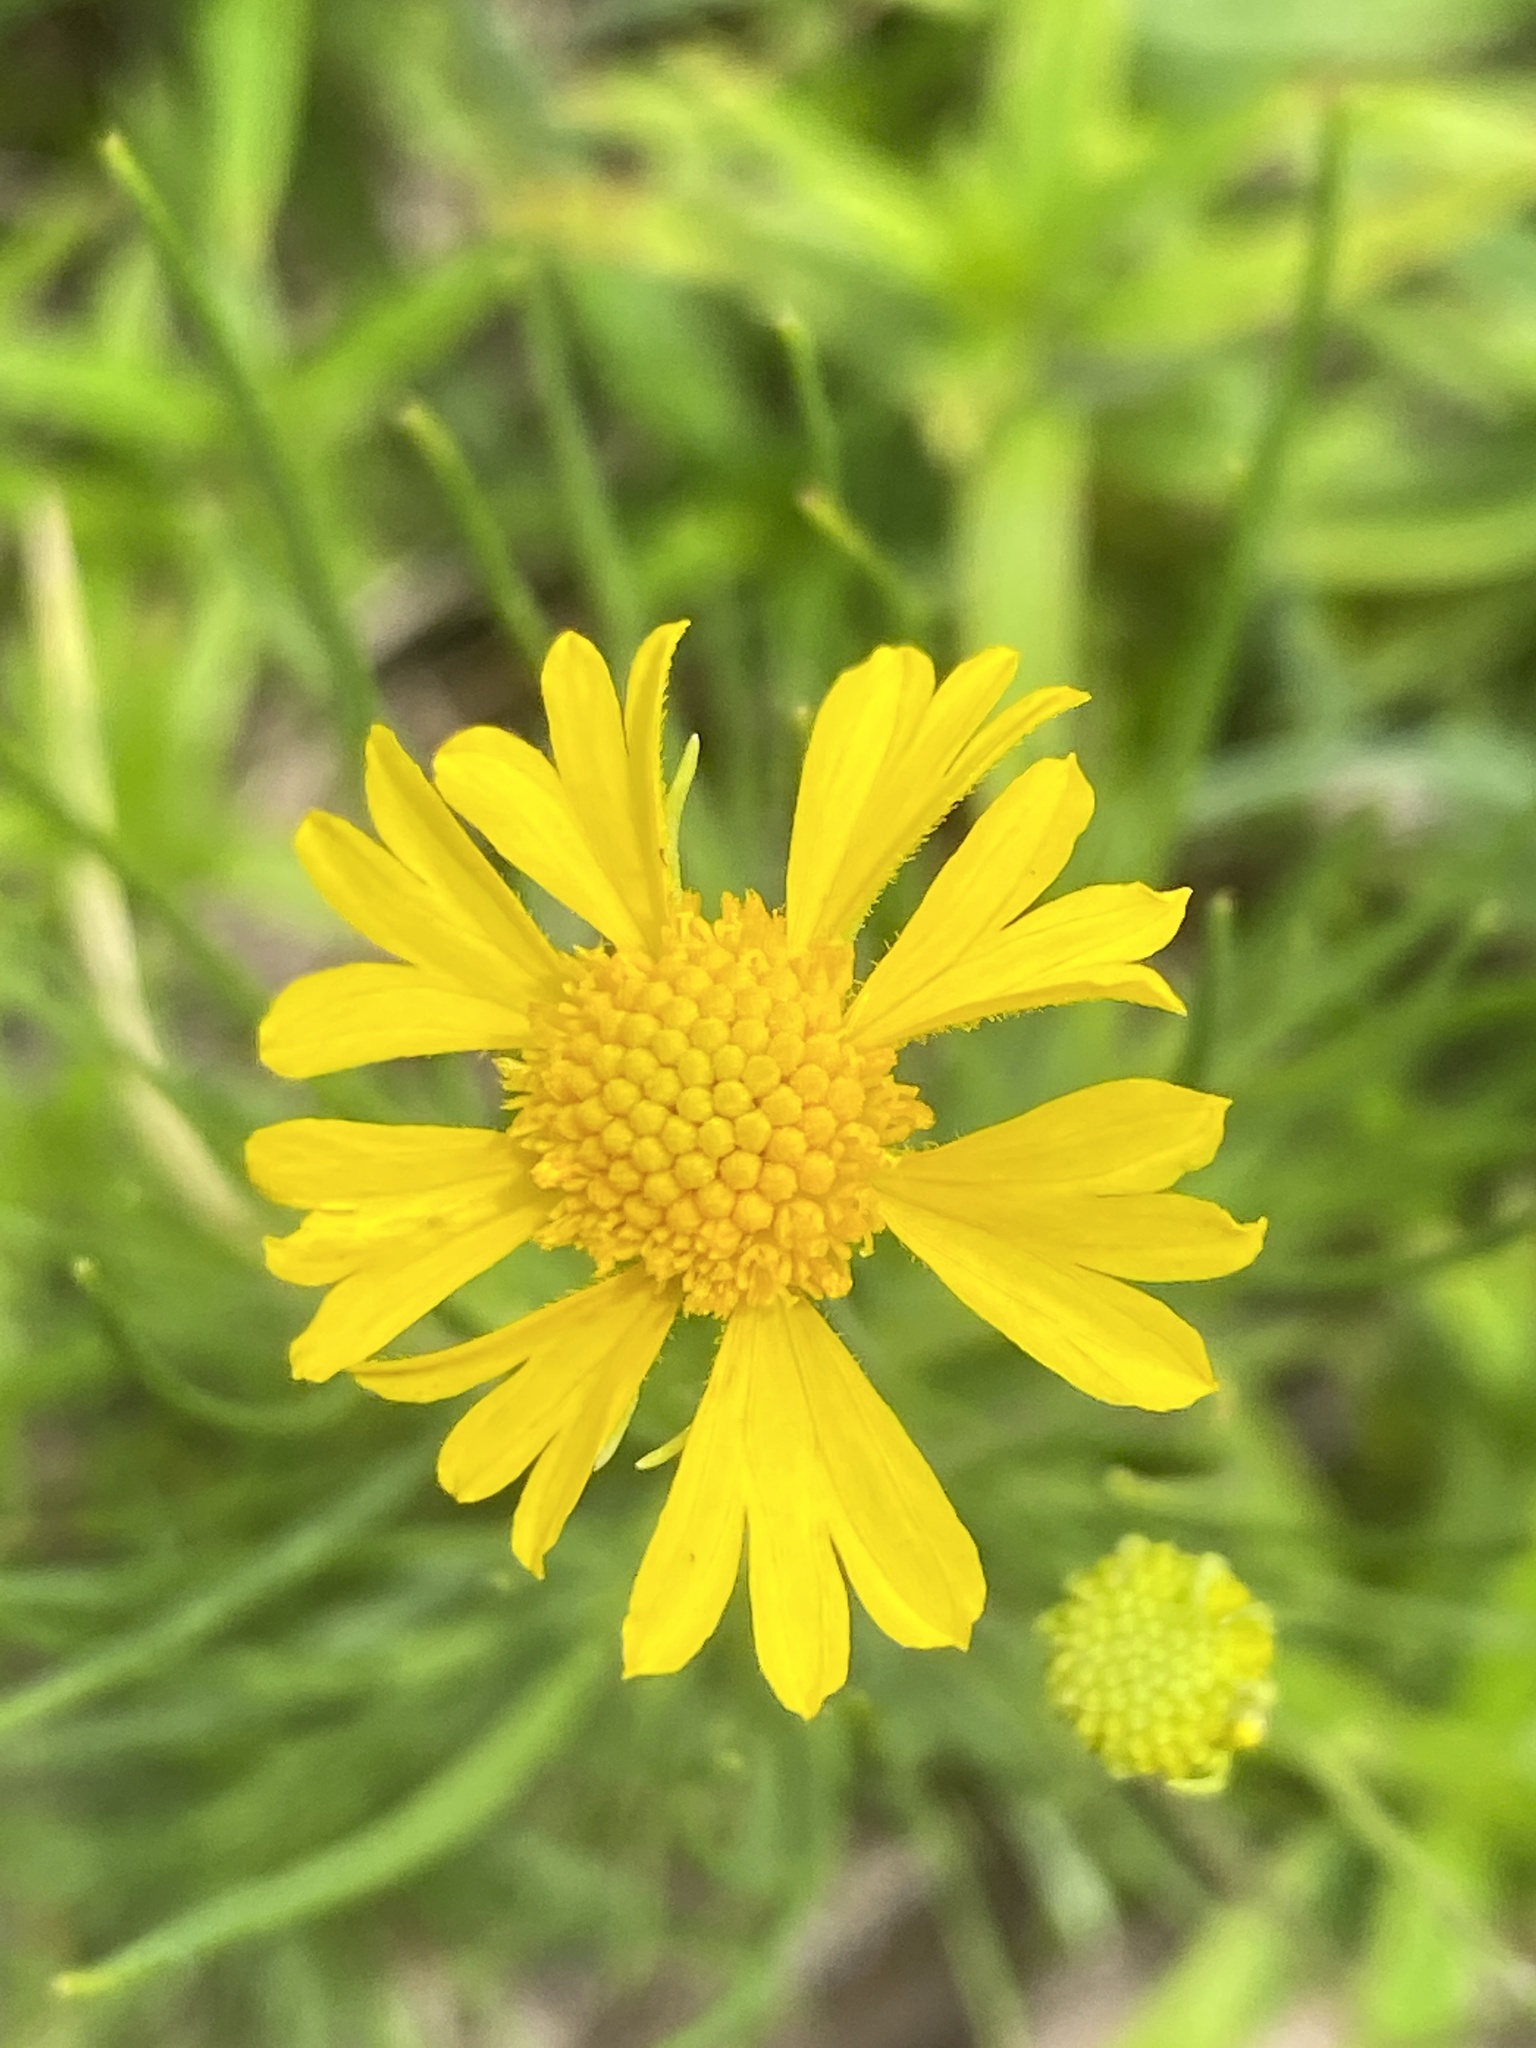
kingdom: Plantae
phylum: Tracheophyta
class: Magnoliopsida
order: Asterales
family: Asteraceae
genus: Helenium
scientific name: Helenium amarum
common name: Bitter sneezeweed
